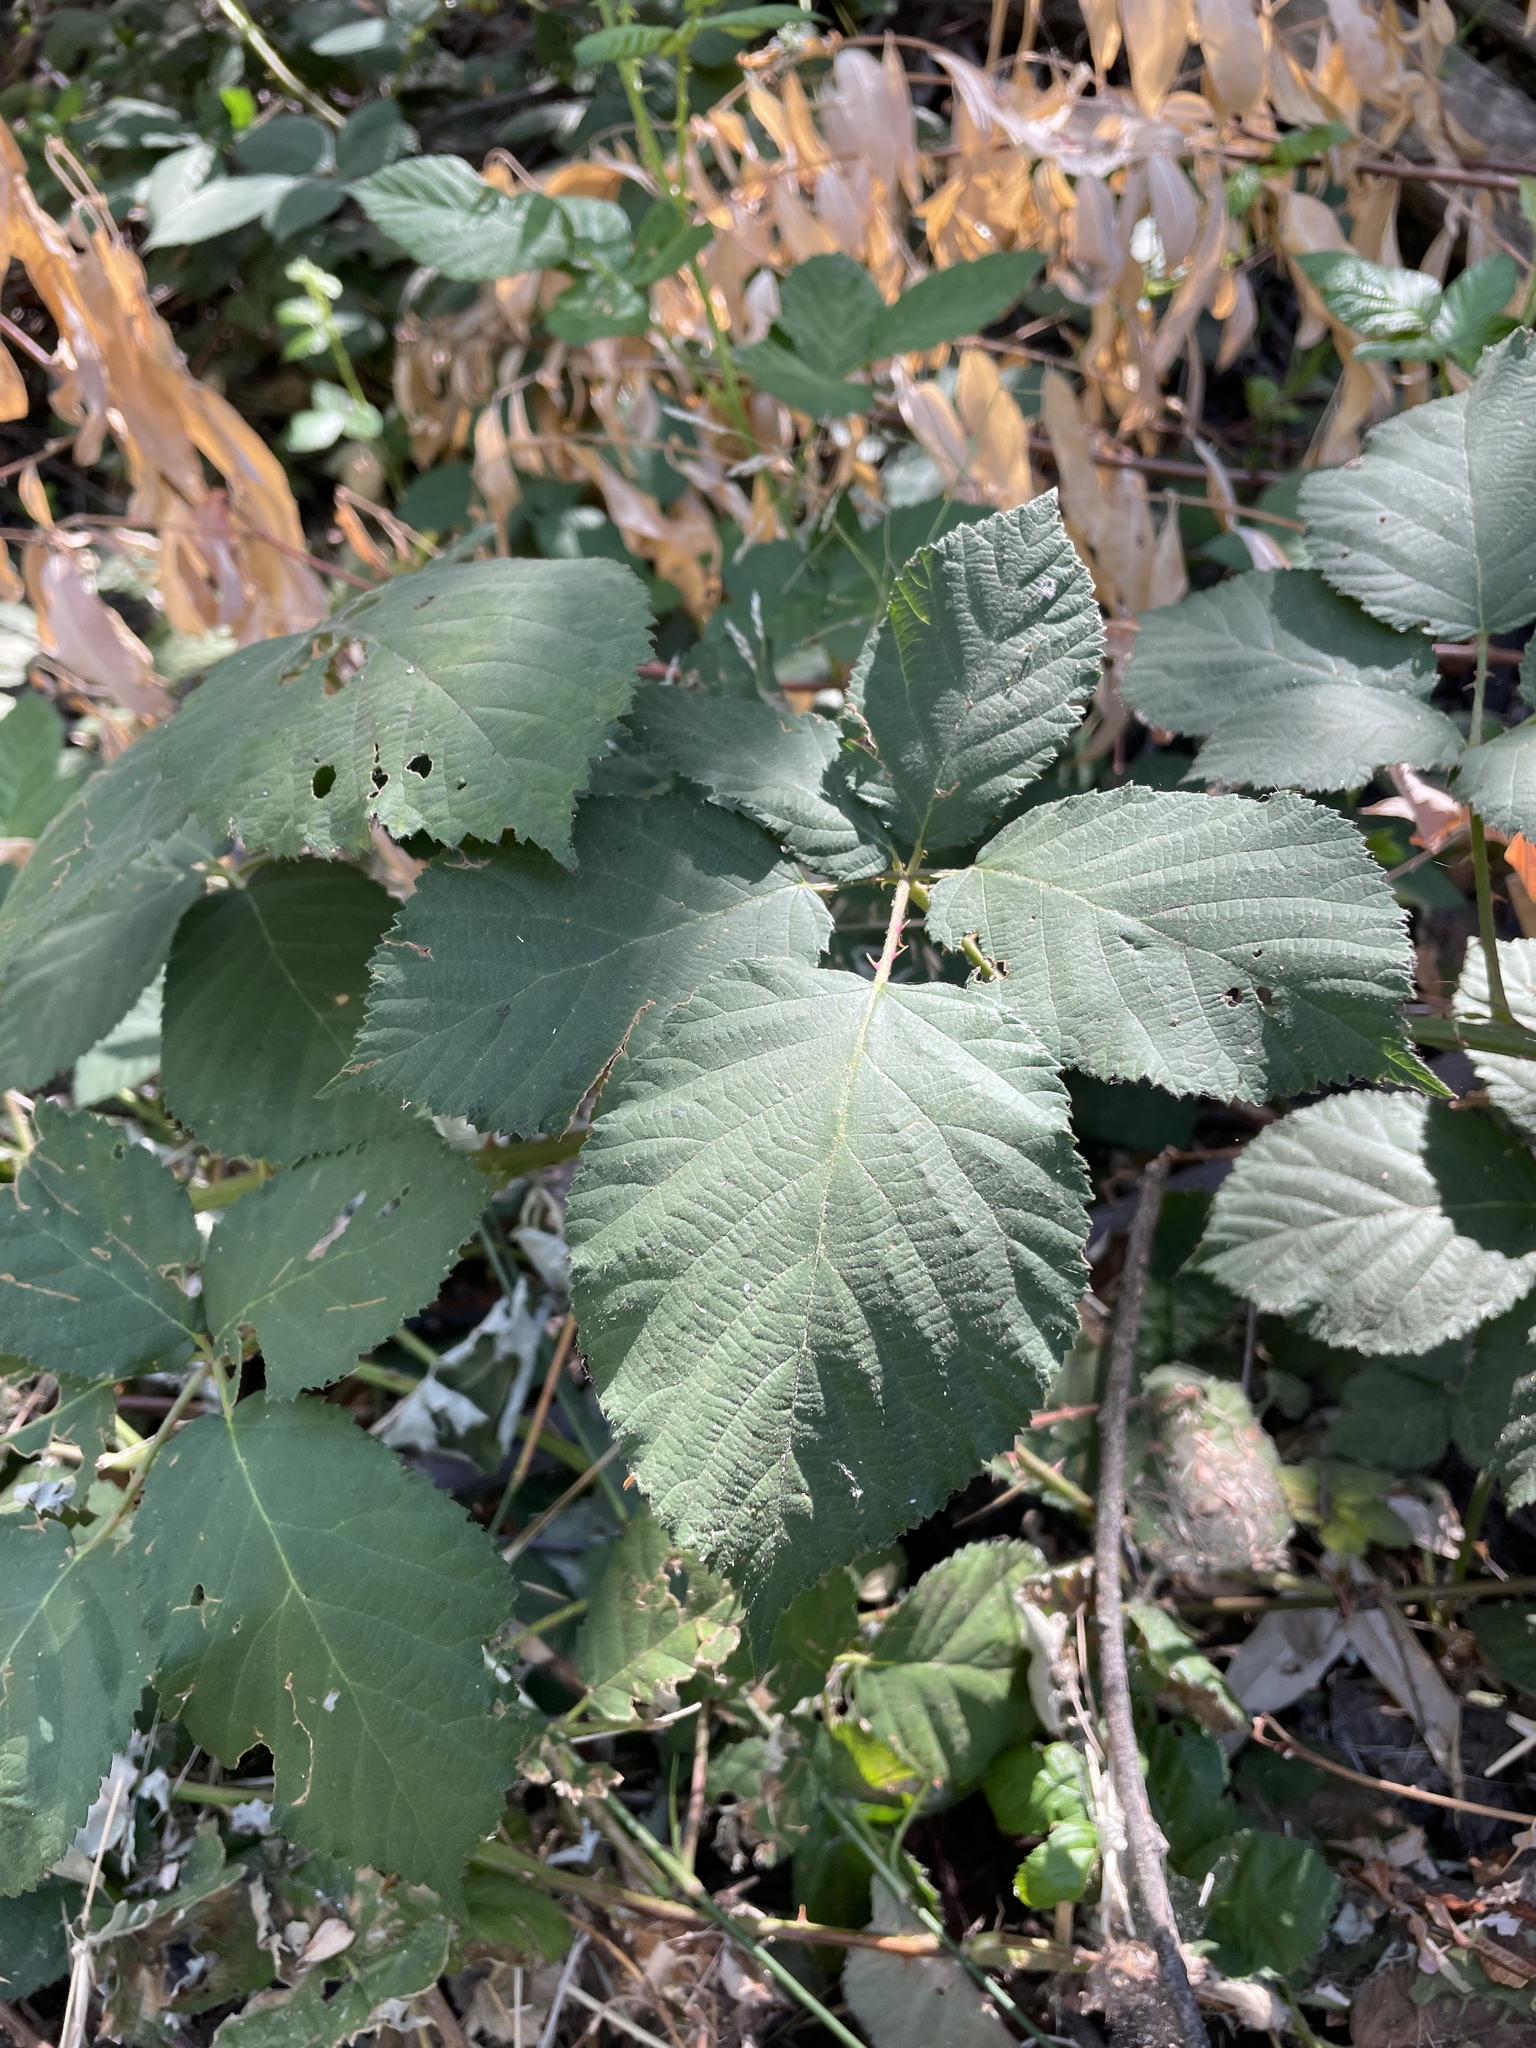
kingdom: Plantae
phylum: Tracheophyta
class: Magnoliopsida
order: Rosales
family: Rosaceae
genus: Rubus
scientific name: Rubus armeniacus
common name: Himalayan blackberry
